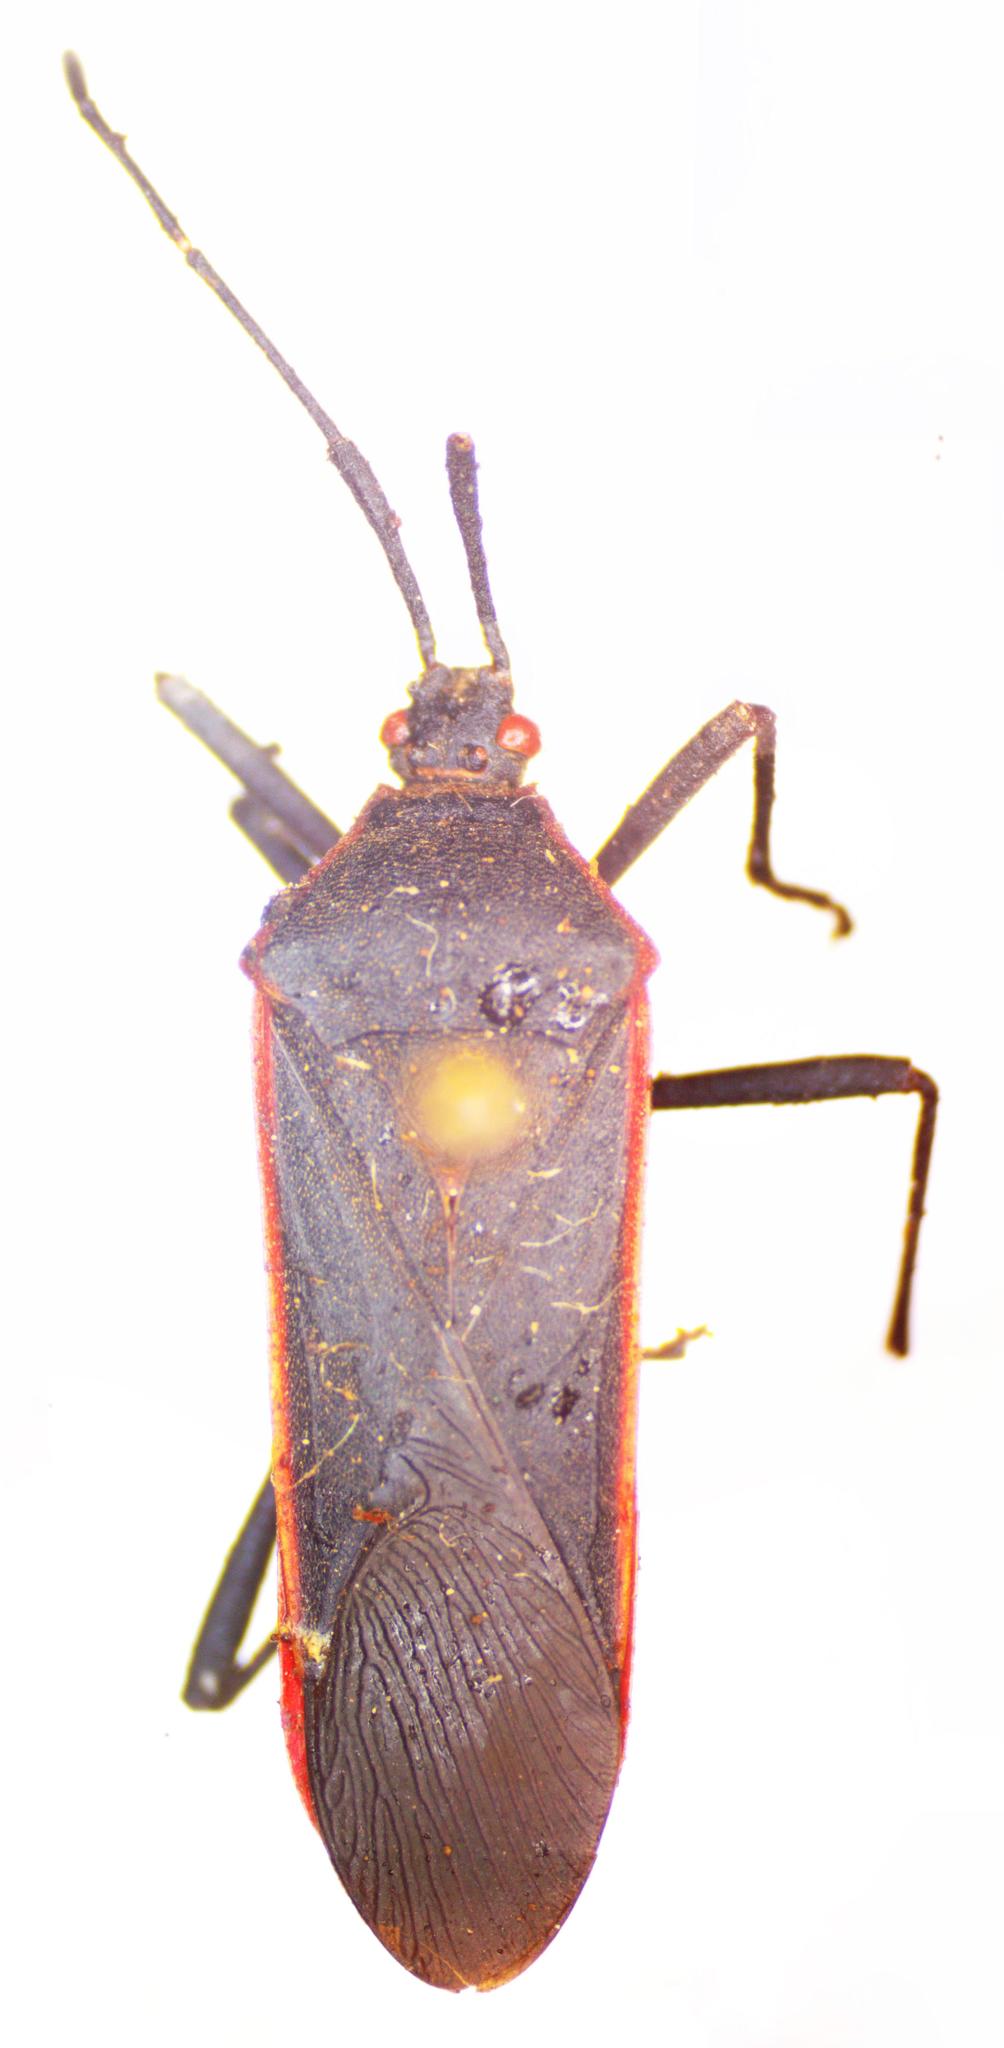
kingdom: Animalia
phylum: Arthropoda
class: Insecta
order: Hemiptera
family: Coreidae
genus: Staluptus
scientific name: Staluptus marginalis
